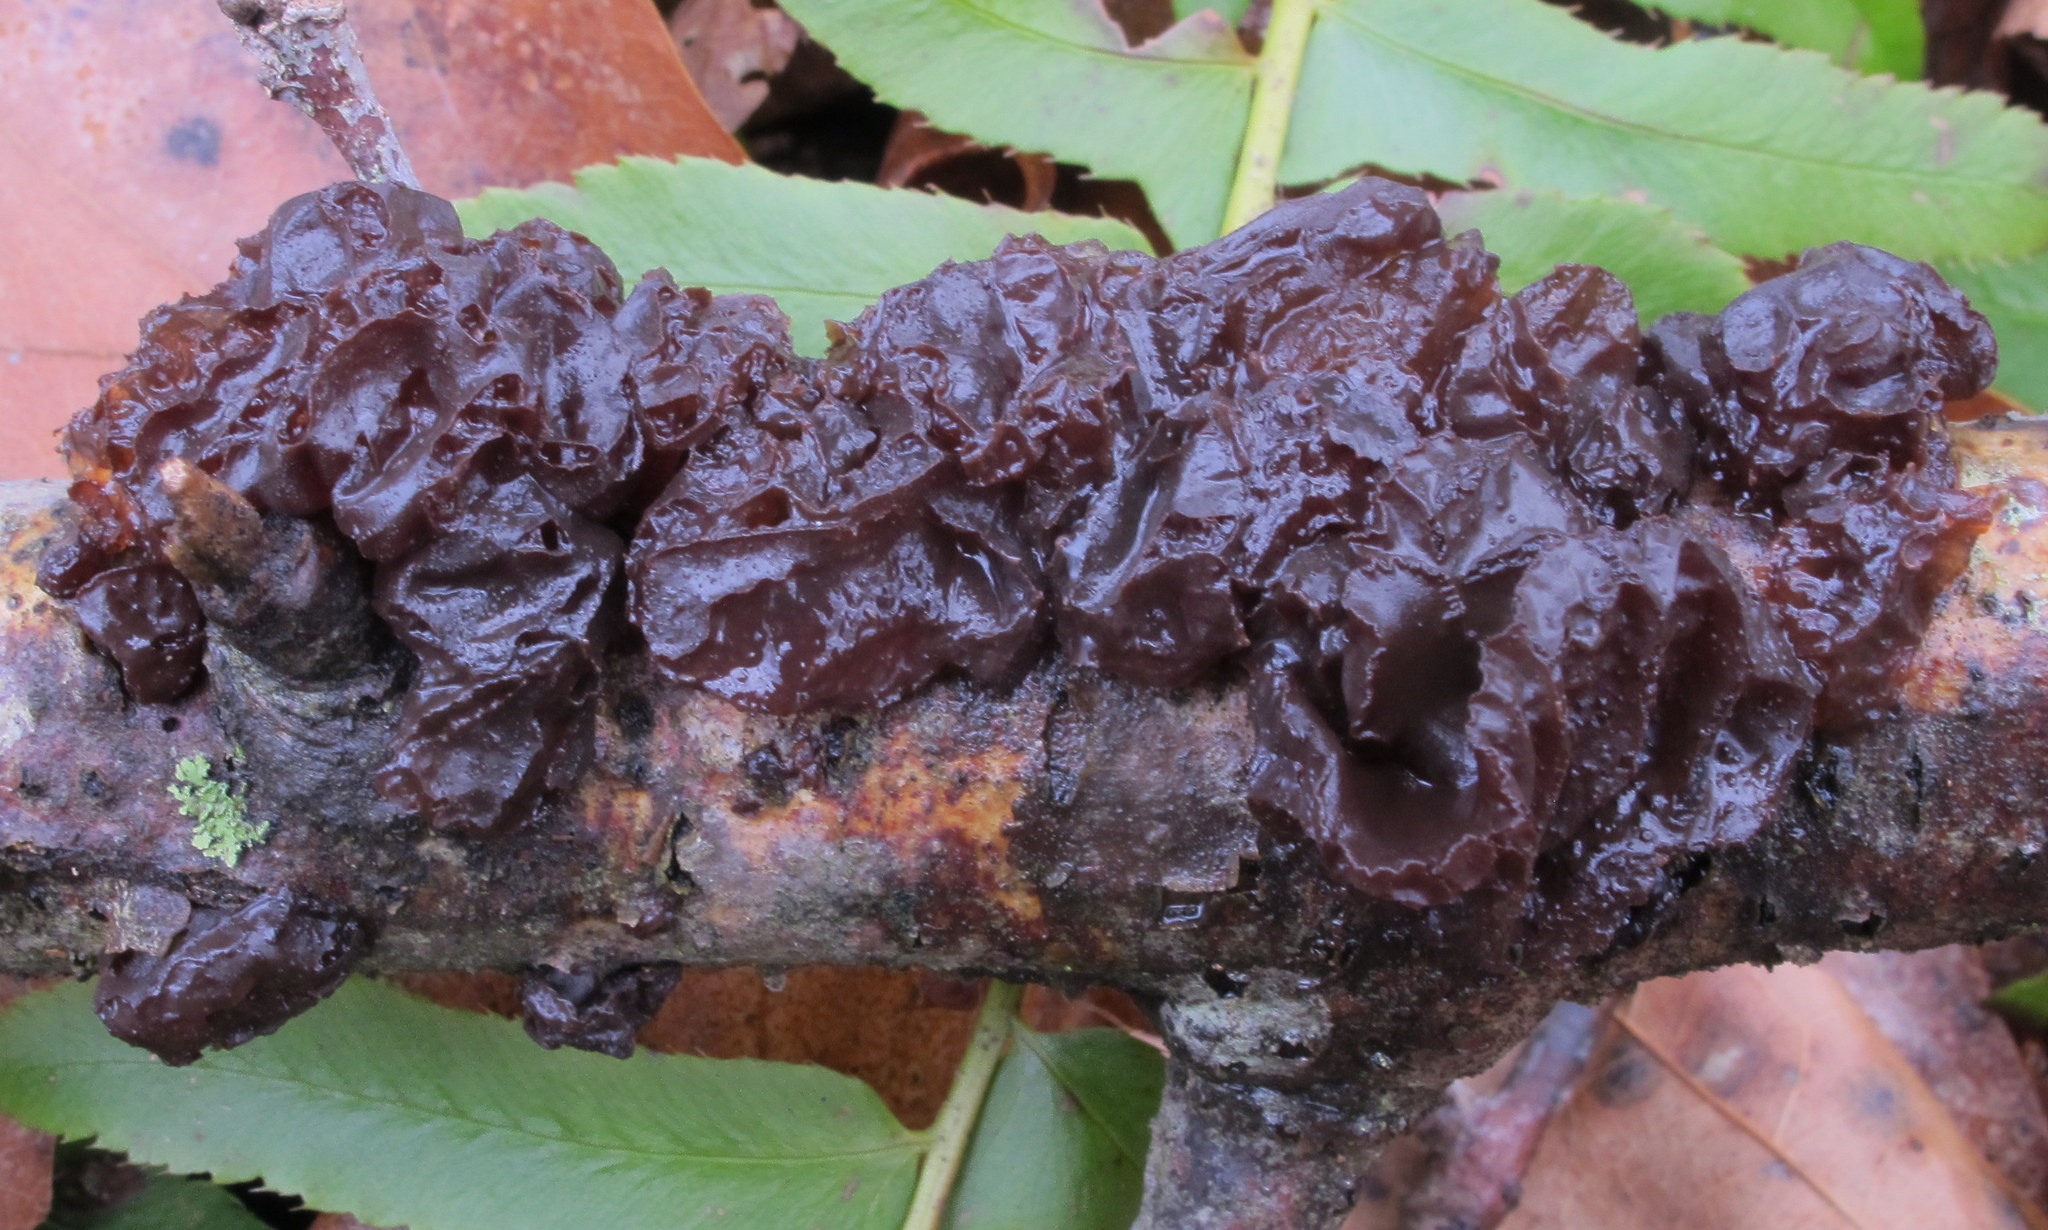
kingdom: Fungi
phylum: Basidiomycota
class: Agaricomycetes
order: Auriculariales
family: Auriculariaceae
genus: Exidia
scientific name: Exidia
